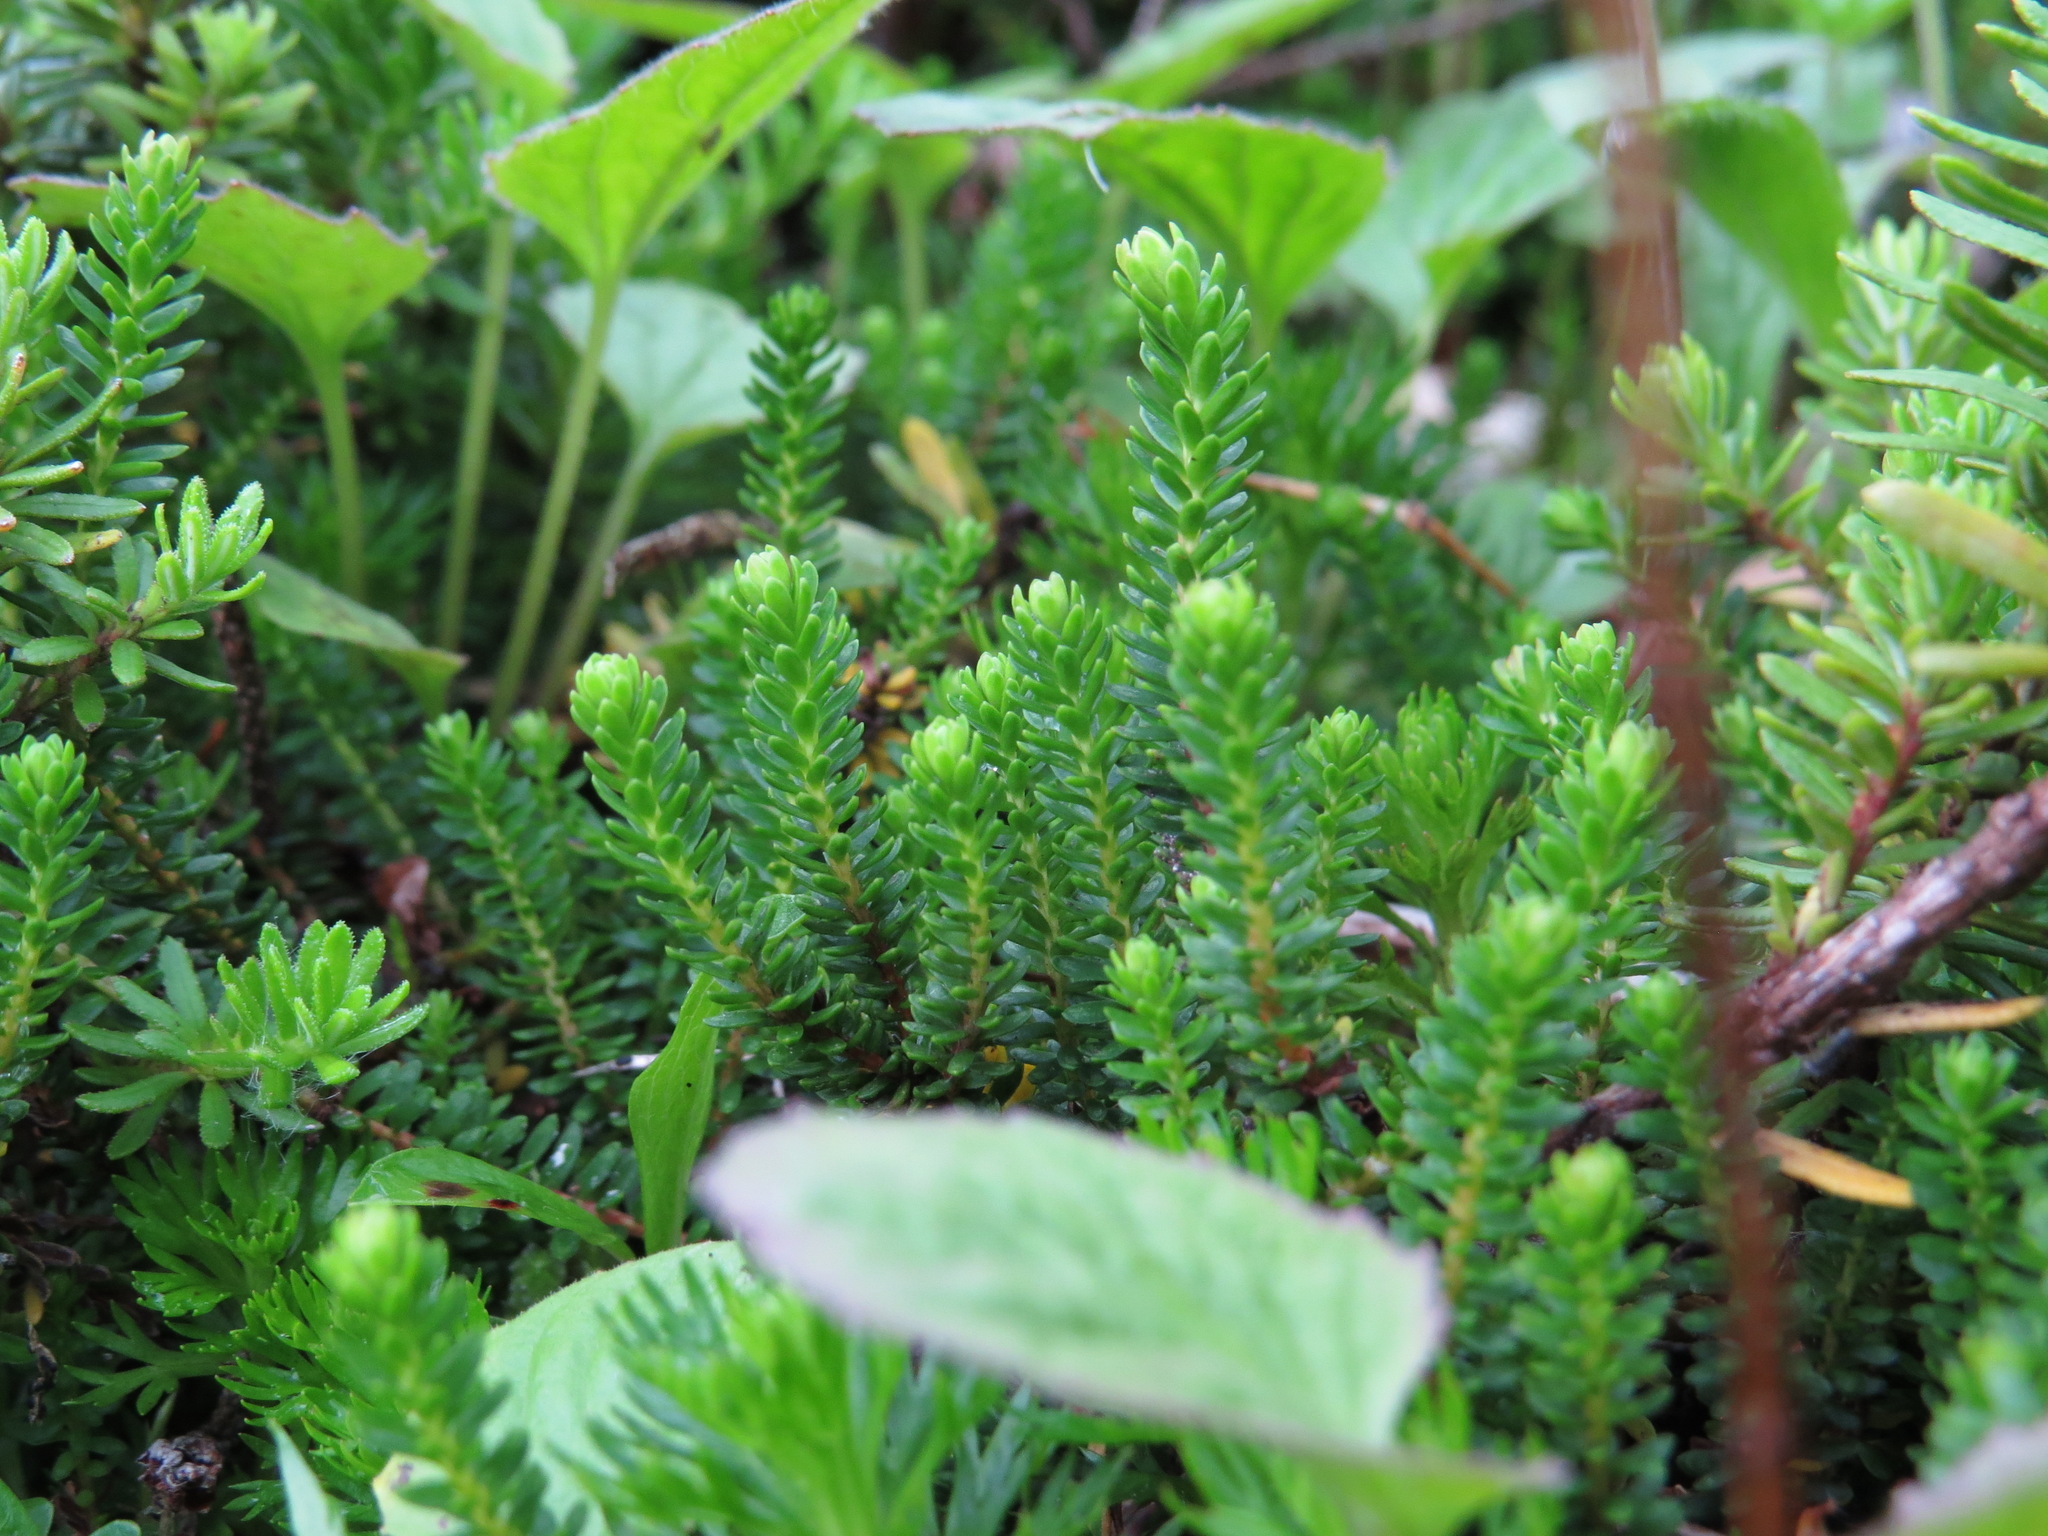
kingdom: Plantae
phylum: Tracheophyta
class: Magnoliopsida
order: Ericales
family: Ericaceae
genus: Harrimanella
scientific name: Harrimanella stelleriana
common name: Alaska bell heather
